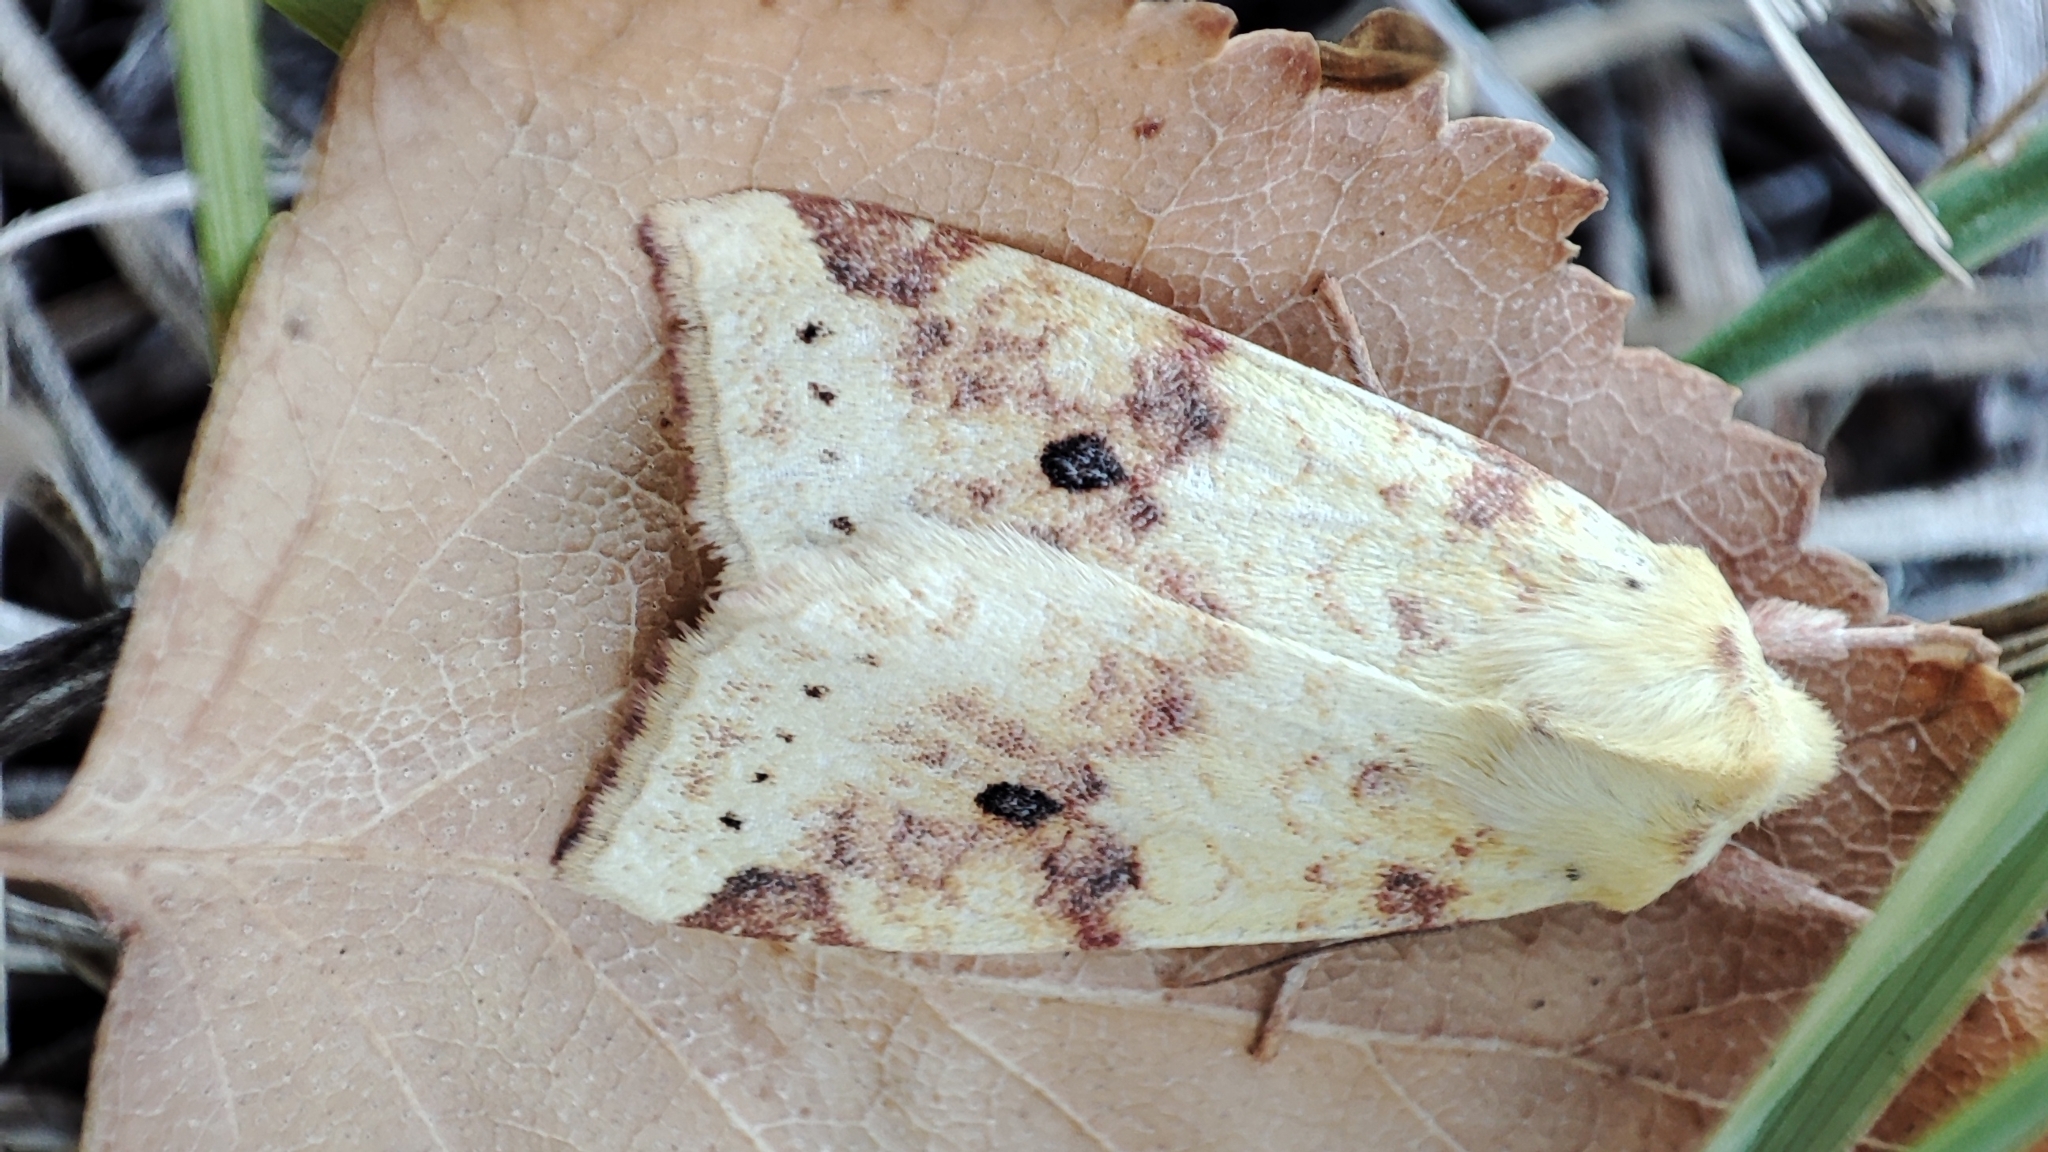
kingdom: Animalia
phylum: Arthropoda
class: Insecta
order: Lepidoptera
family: Noctuidae
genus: Xanthia
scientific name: Xanthia icteritia
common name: The sallow
